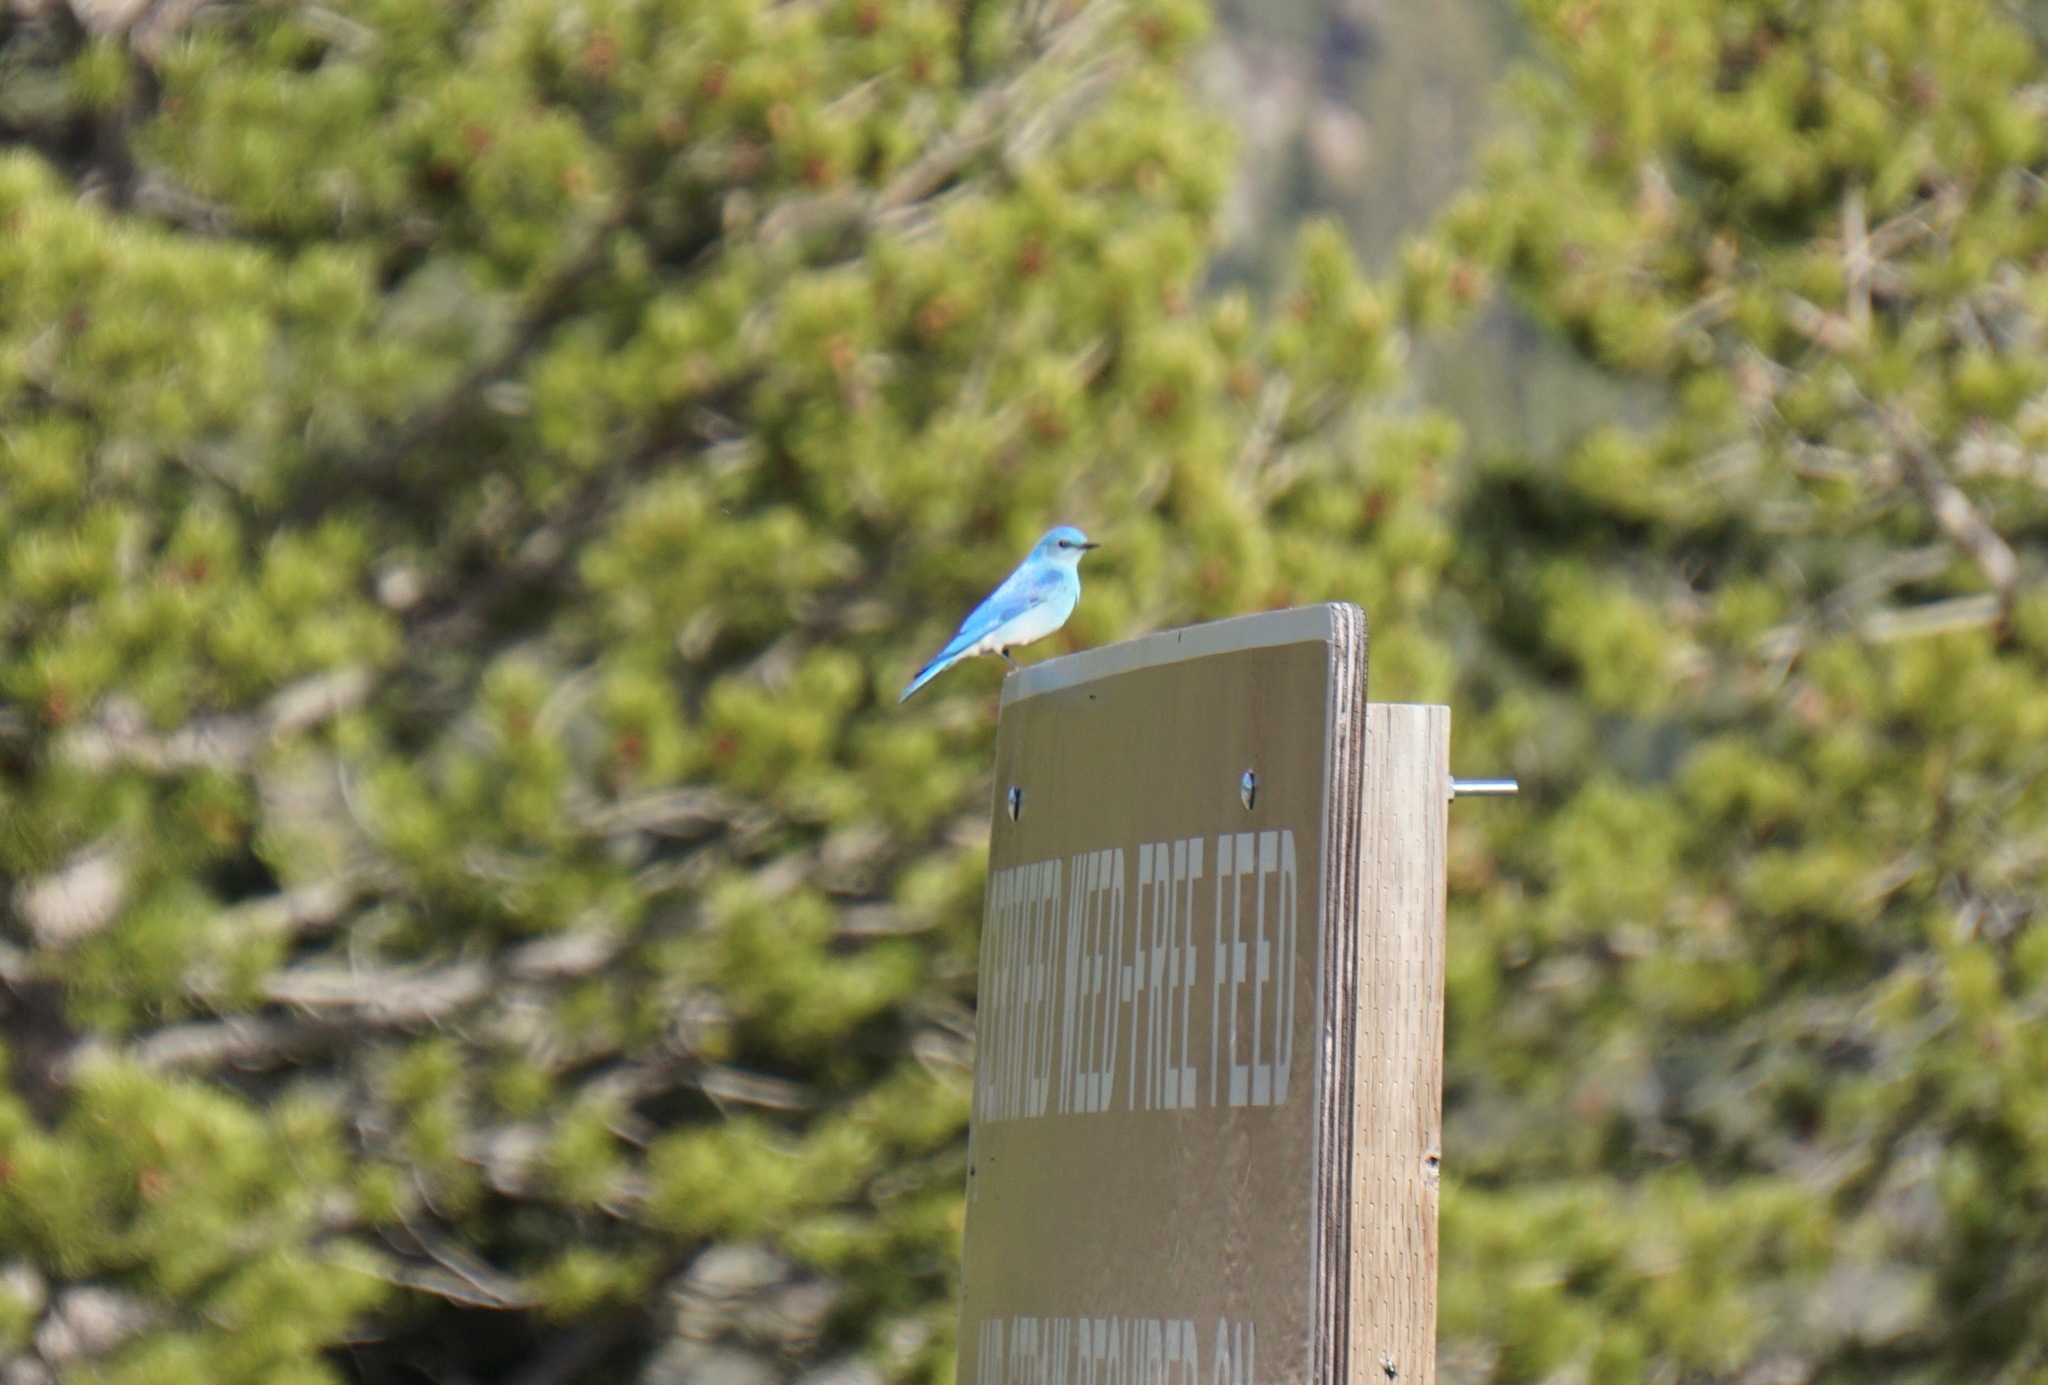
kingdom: Animalia
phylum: Chordata
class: Aves
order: Passeriformes
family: Turdidae
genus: Sialia
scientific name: Sialia currucoides
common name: Mountain bluebird
